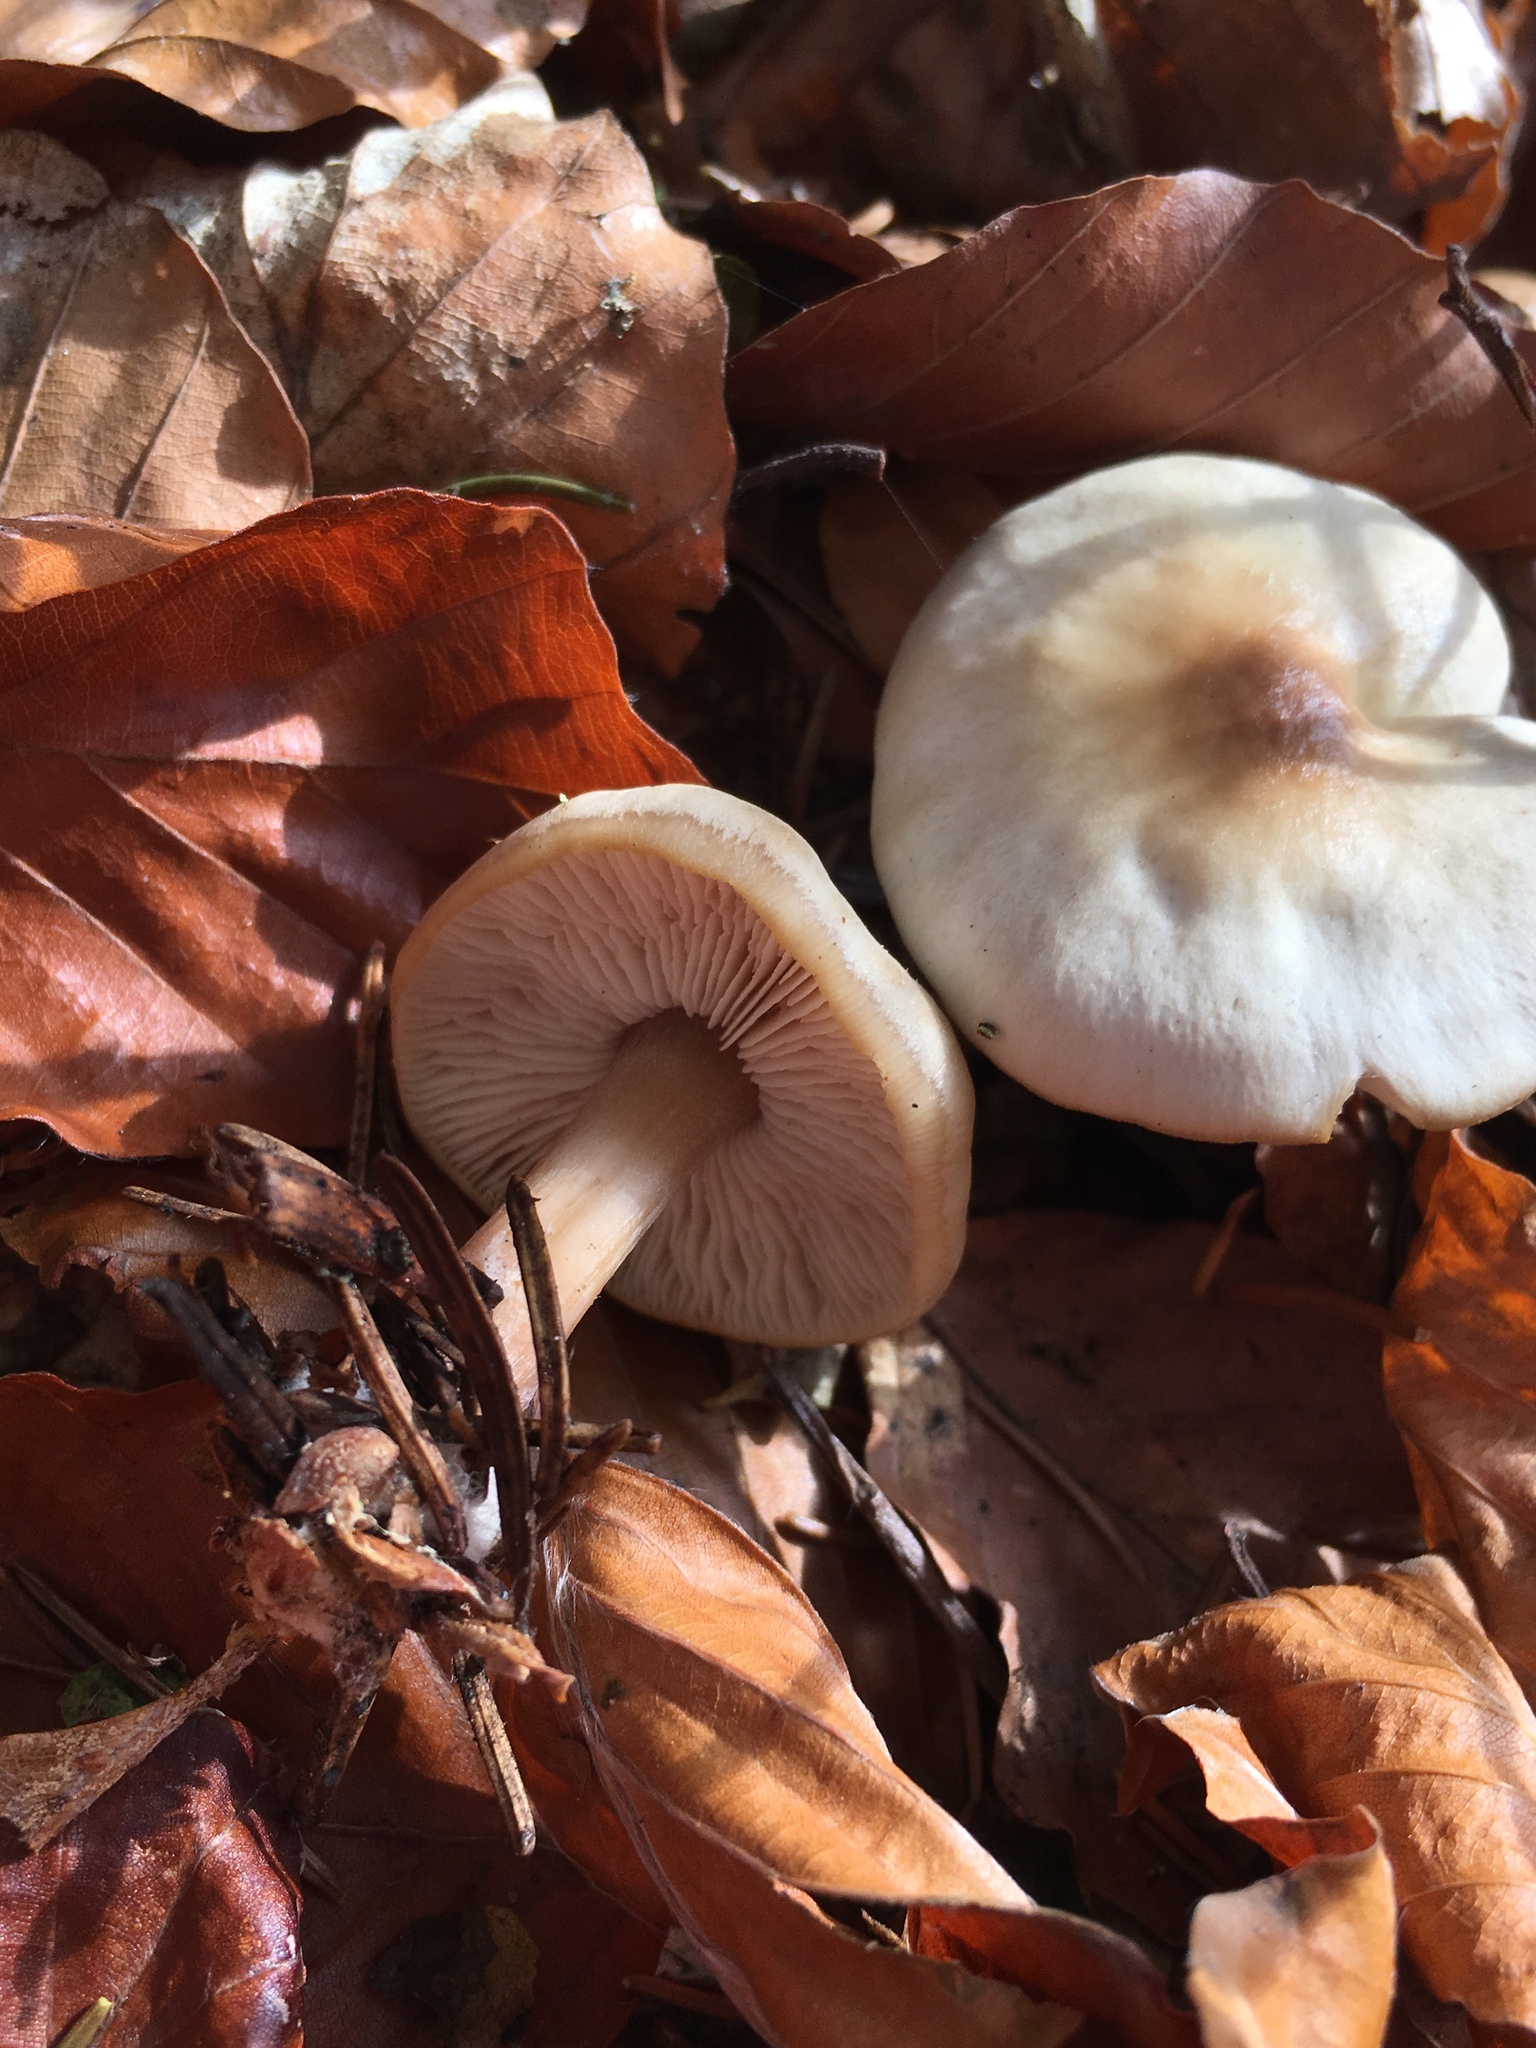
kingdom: Fungi
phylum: Basidiomycota
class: Agaricomycetes
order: Agaricales
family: Omphalotaceae
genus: Rhodocollybia
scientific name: Rhodocollybia asema
